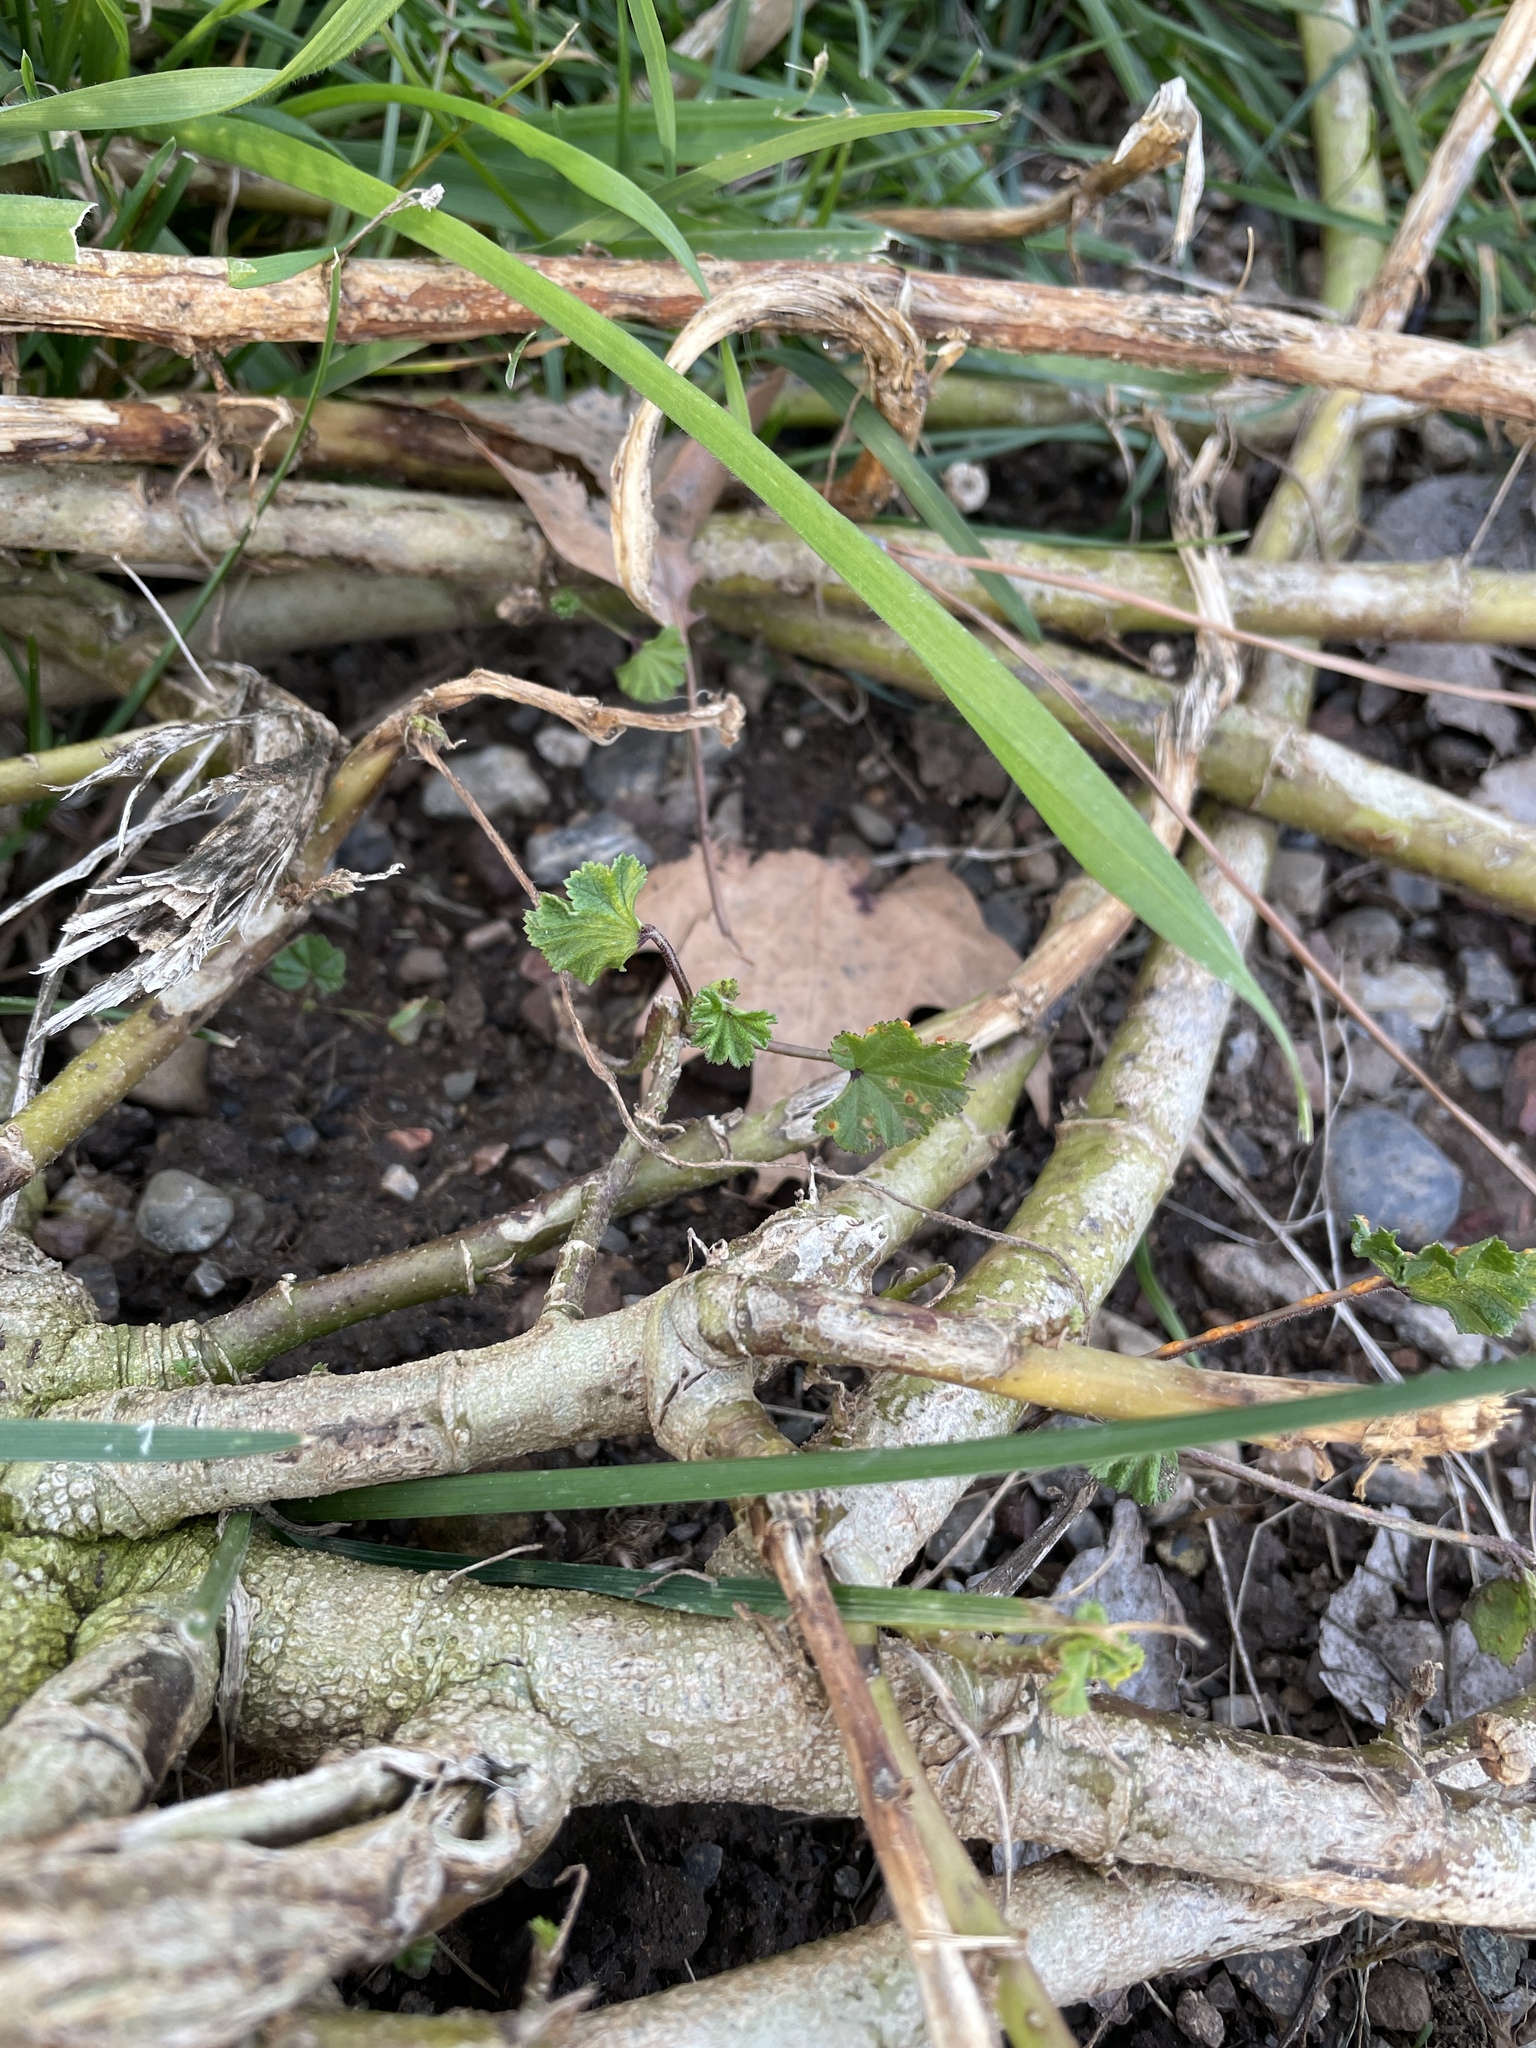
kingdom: Plantae
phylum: Tracheophyta
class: Magnoliopsida
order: Malvales
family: Malvaceae
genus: Malva
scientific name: Malva
